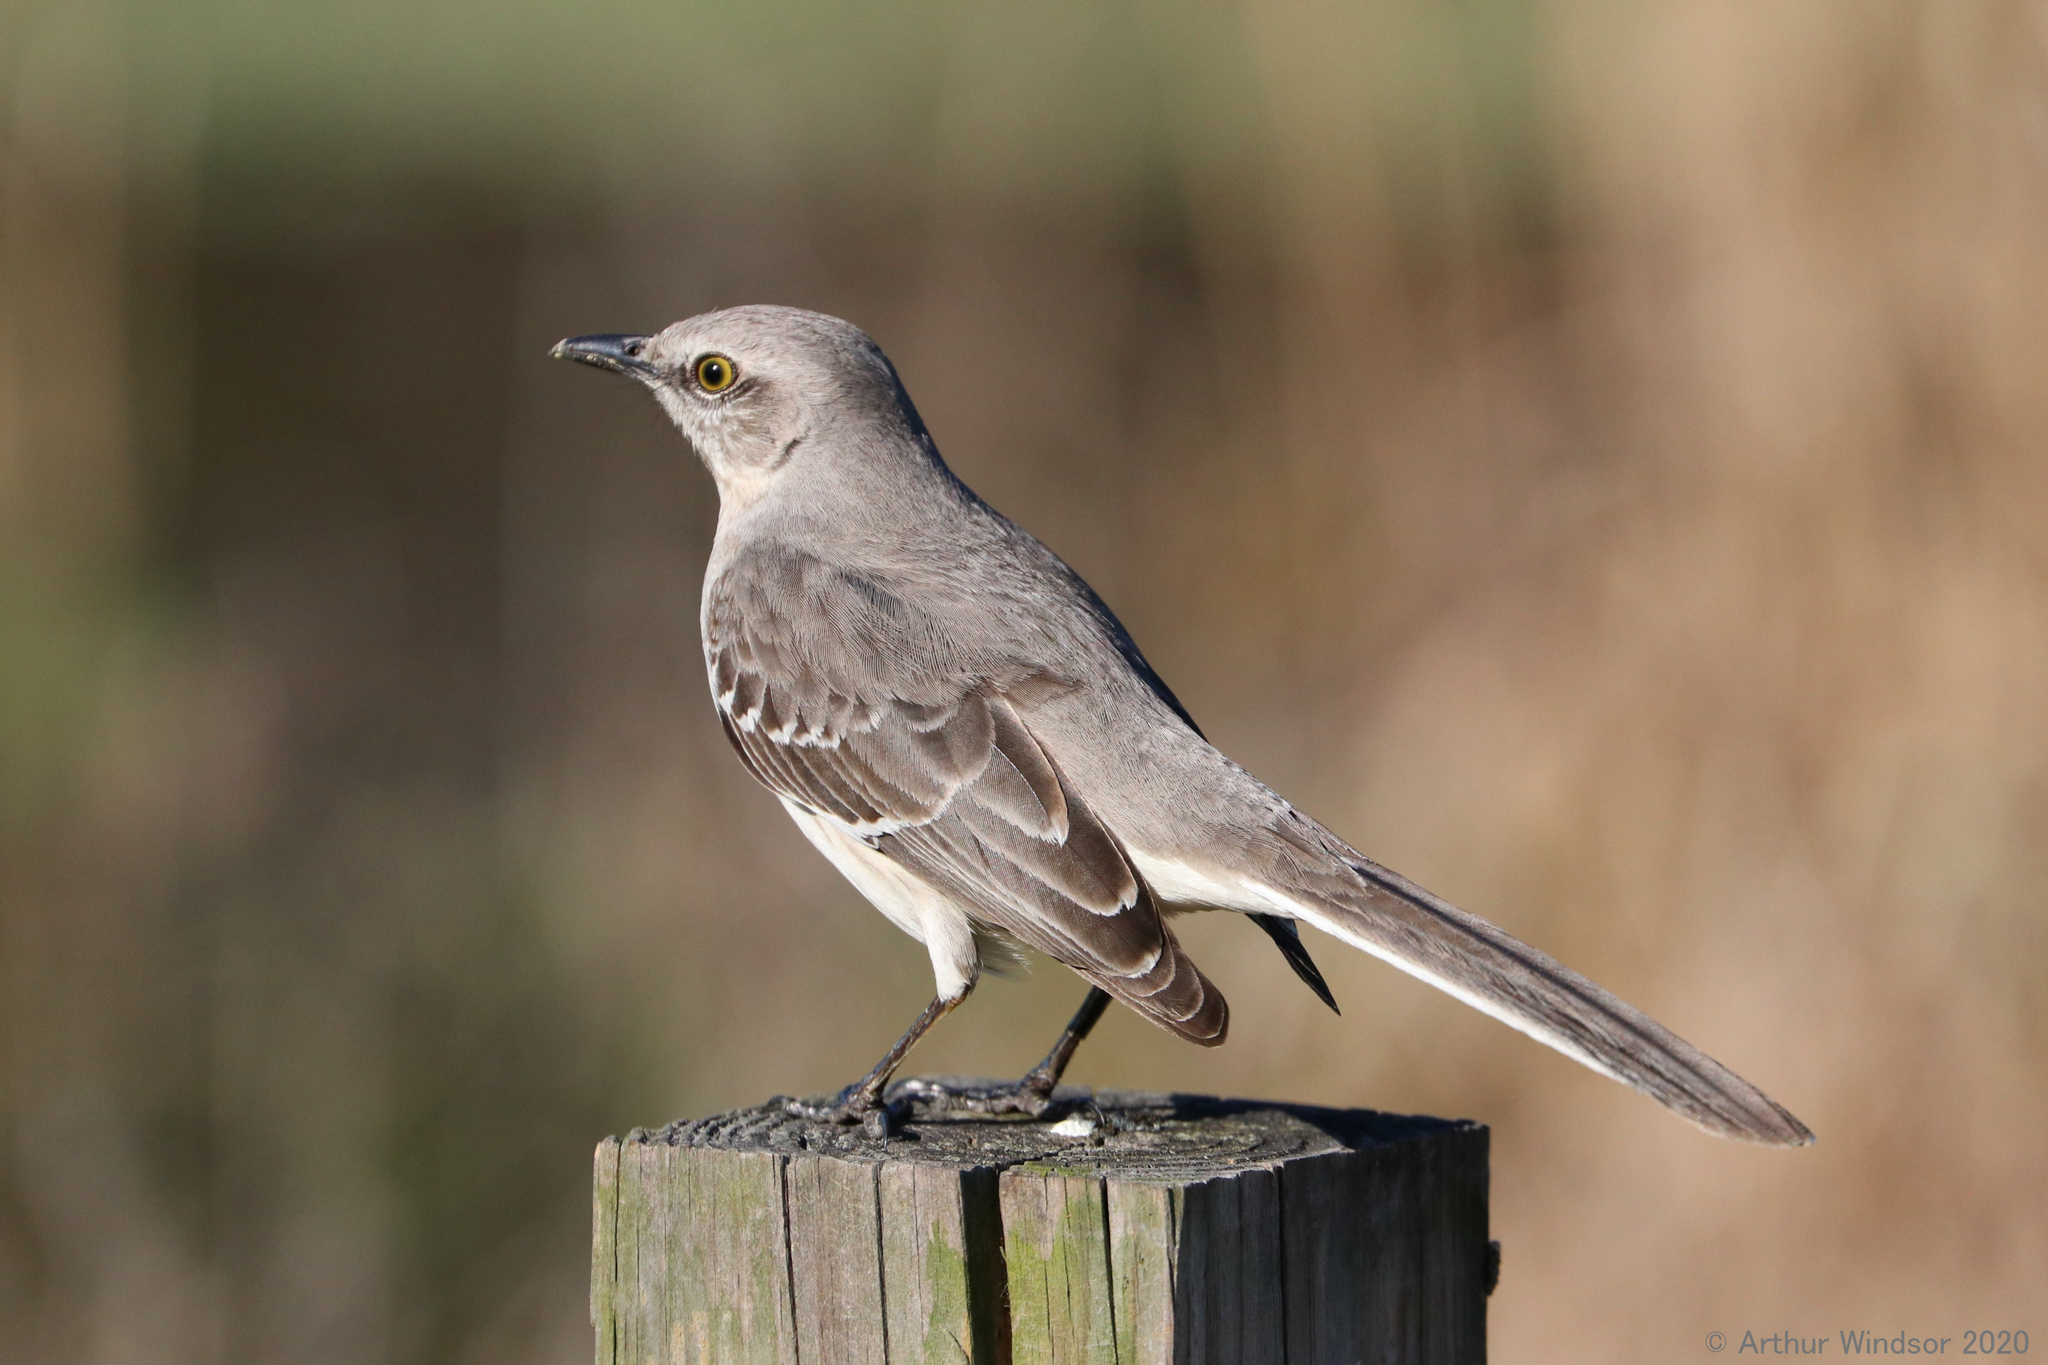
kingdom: Animalia
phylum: Chordata
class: Aves
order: Passeriformes
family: Mimidae
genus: Mimus
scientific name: Mimus polyglottos
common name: Northern mockingbird
